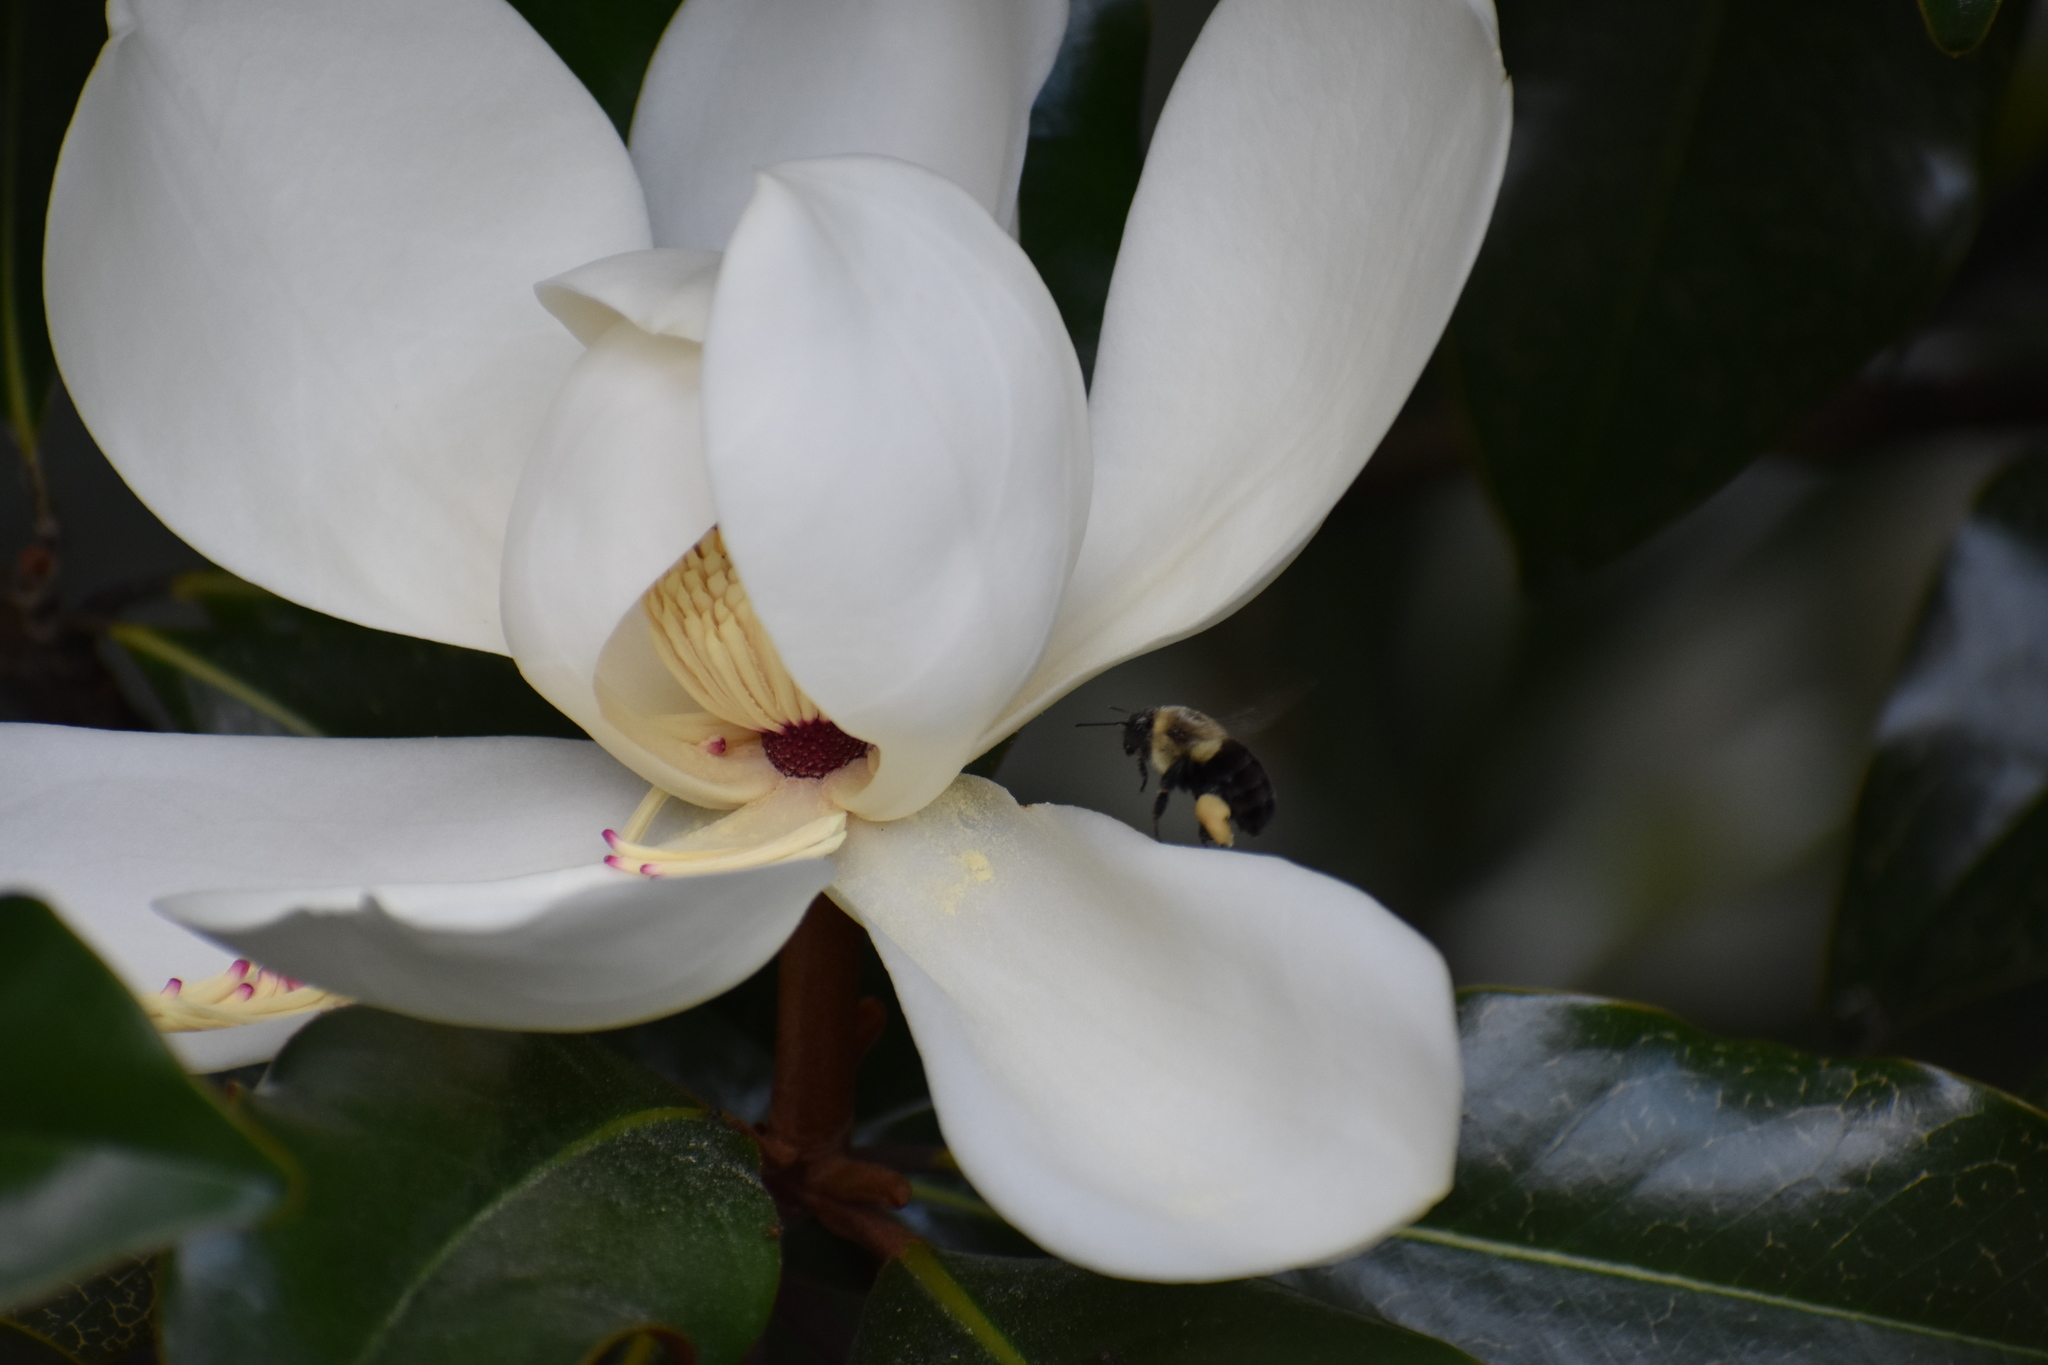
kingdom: Animalia
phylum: Arthropoda
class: Insecta
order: Hymenoptera
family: Apidae
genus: Bombus
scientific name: Bombus impatiens
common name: Common eastern bumble bee
